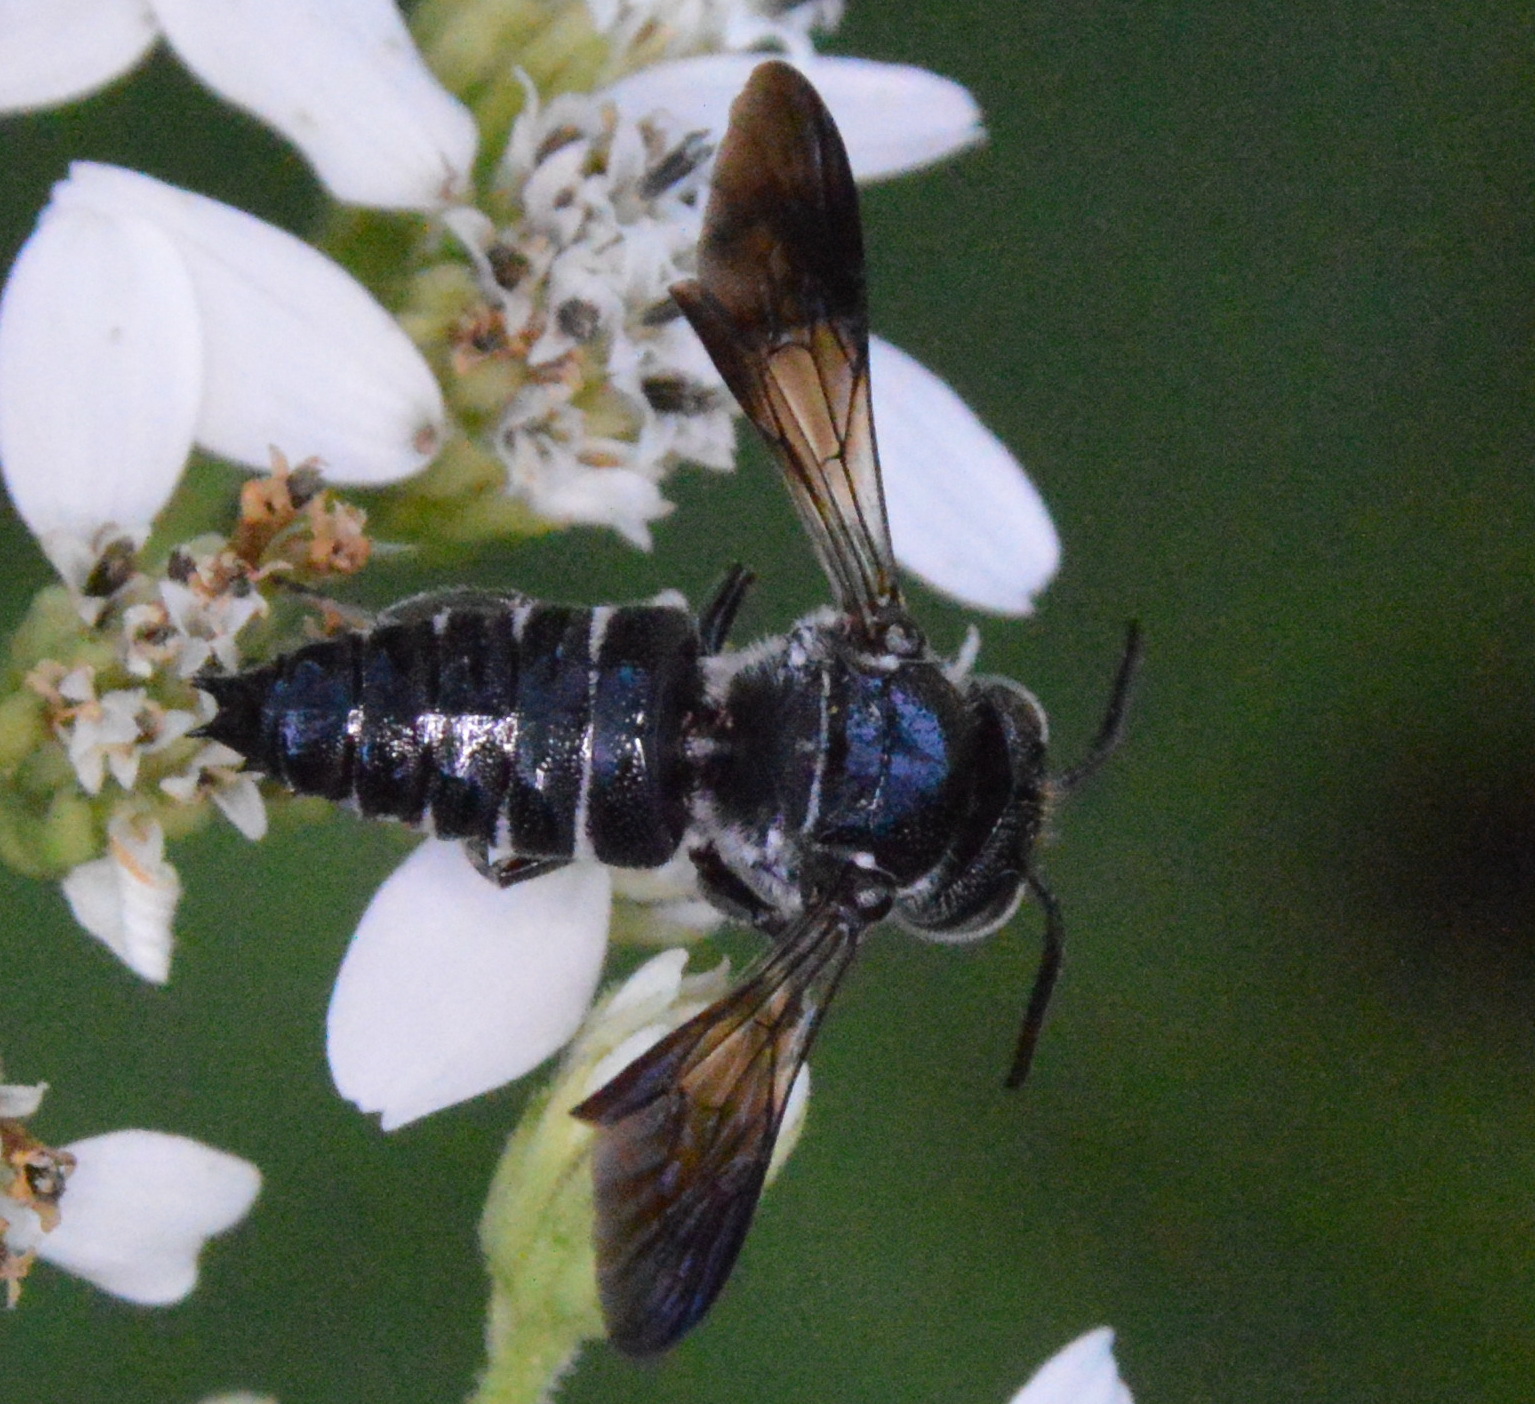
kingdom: Animalia
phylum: Arthropoda
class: Insecta
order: Hymenoptera
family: Megachilidae
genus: Coelioxys
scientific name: Coelioxys dolichos
